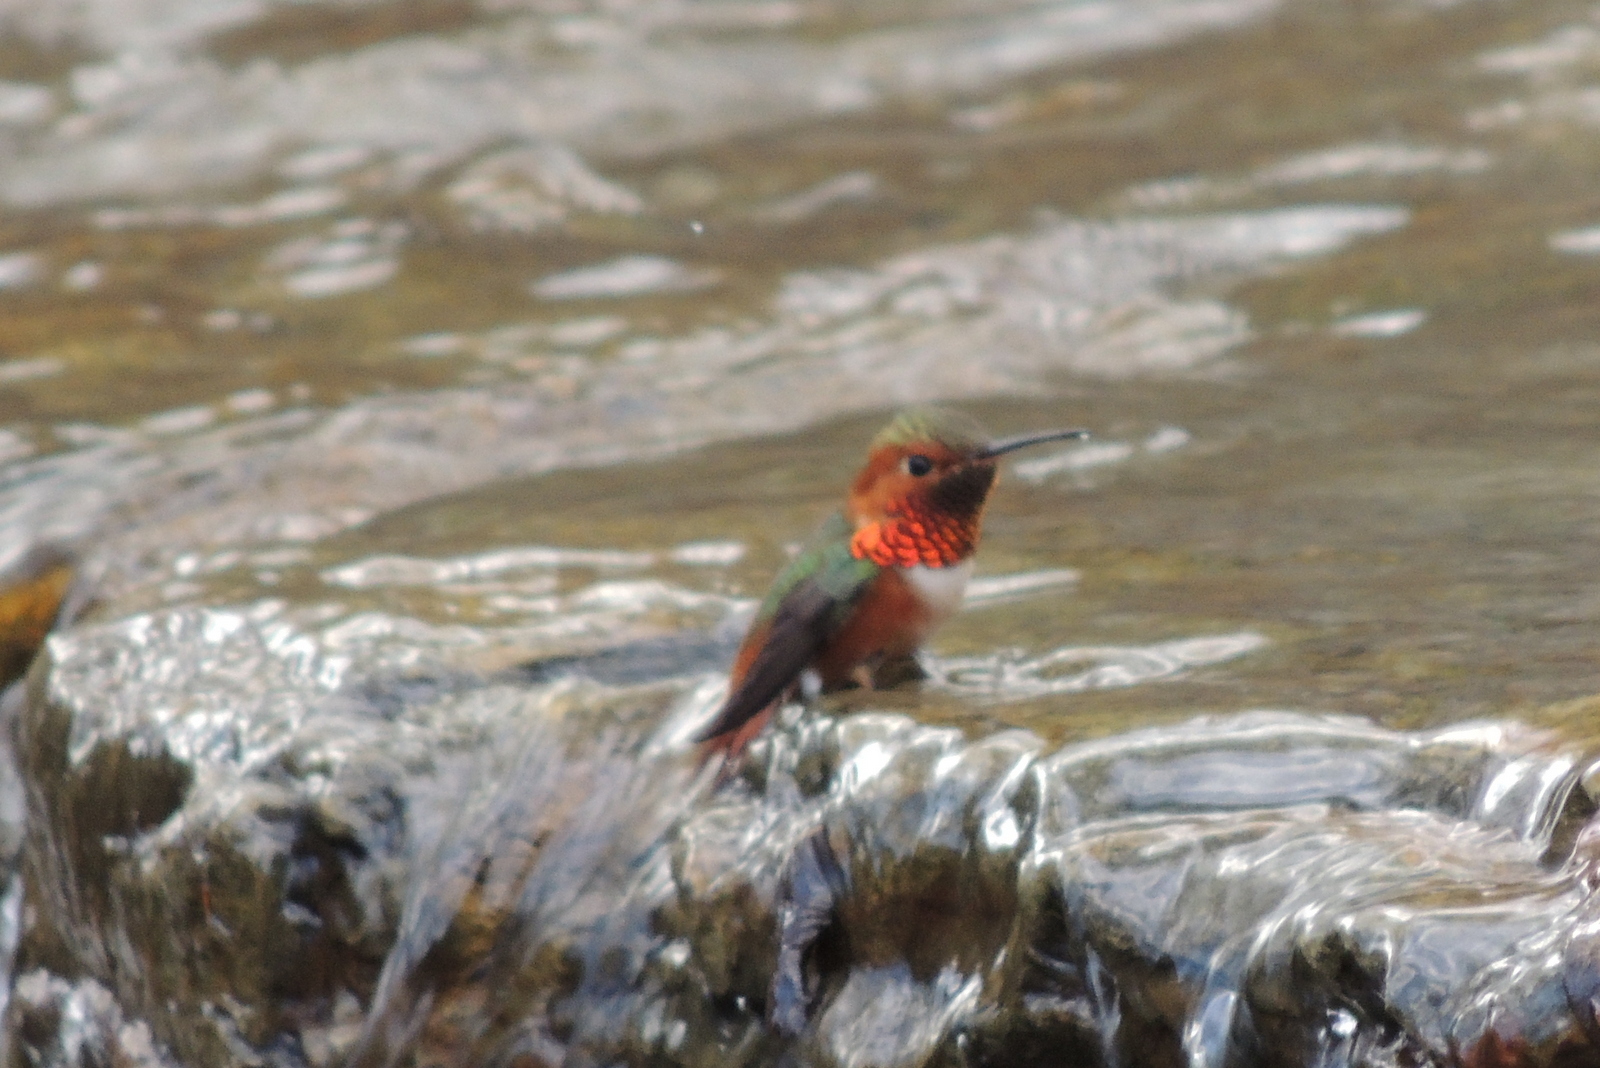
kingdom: Animalia
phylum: Chordata
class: Aves
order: Apodiformes
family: Trochilidae
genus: Selasphorus
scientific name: Selasphorus sasin
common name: Allen's hummingbird
